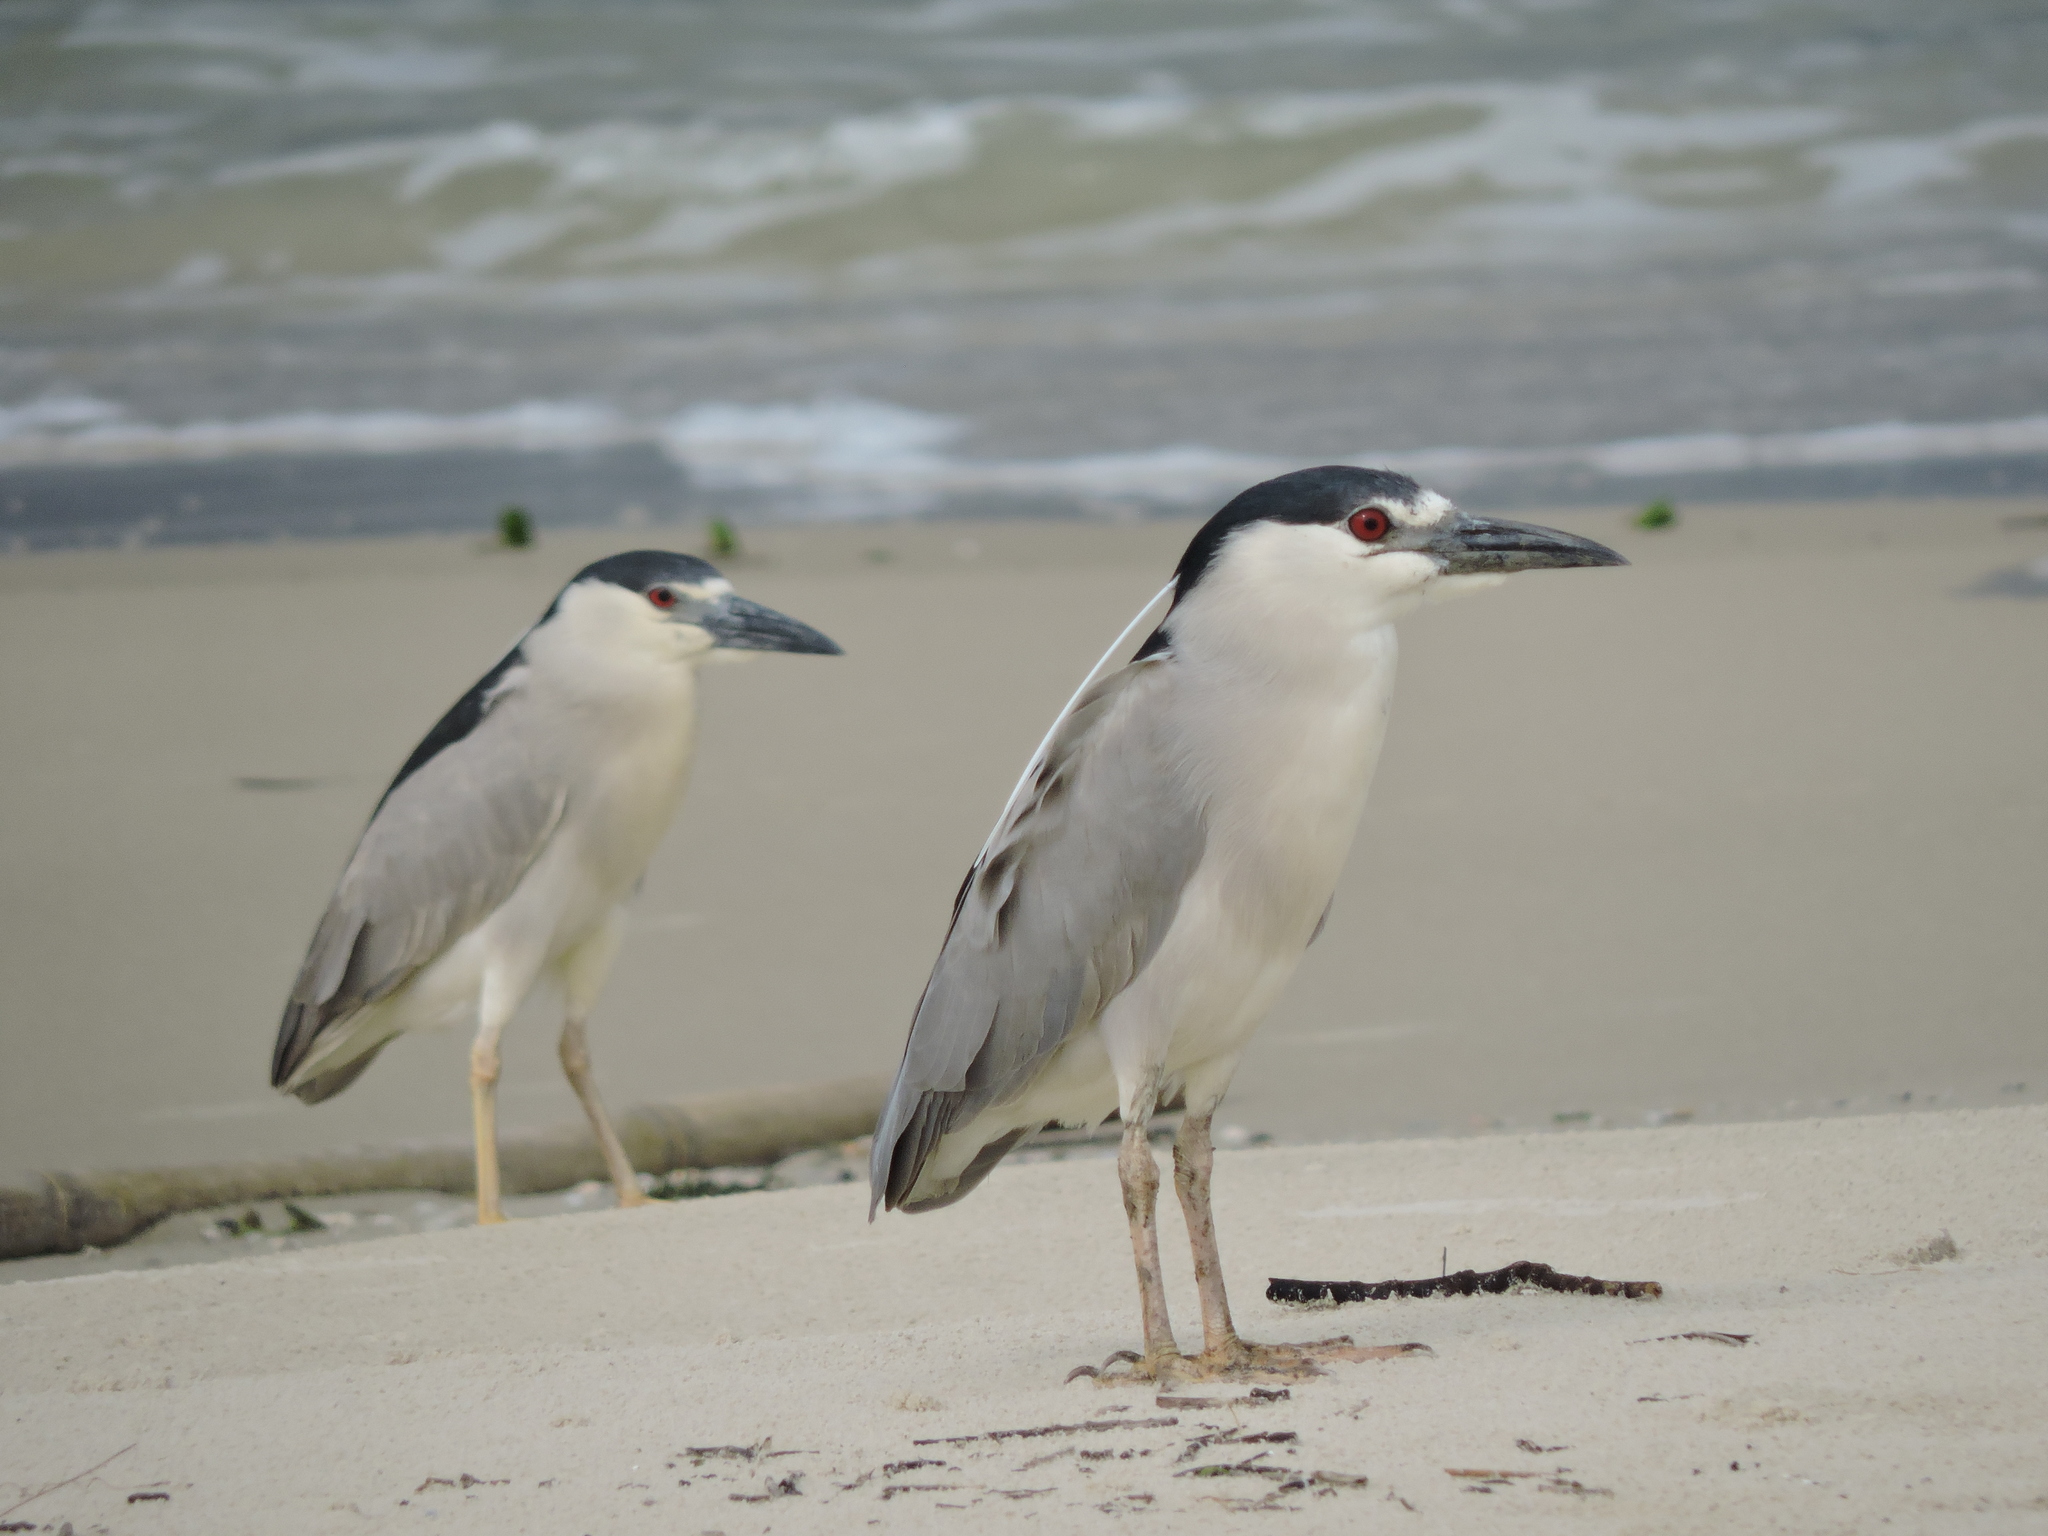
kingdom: Animalia
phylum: Chordata
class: Aves
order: Pelecaniformes
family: Ardeidae
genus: Nycticorax
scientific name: Nycticorax nycticorax
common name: Black-crowned night heron
